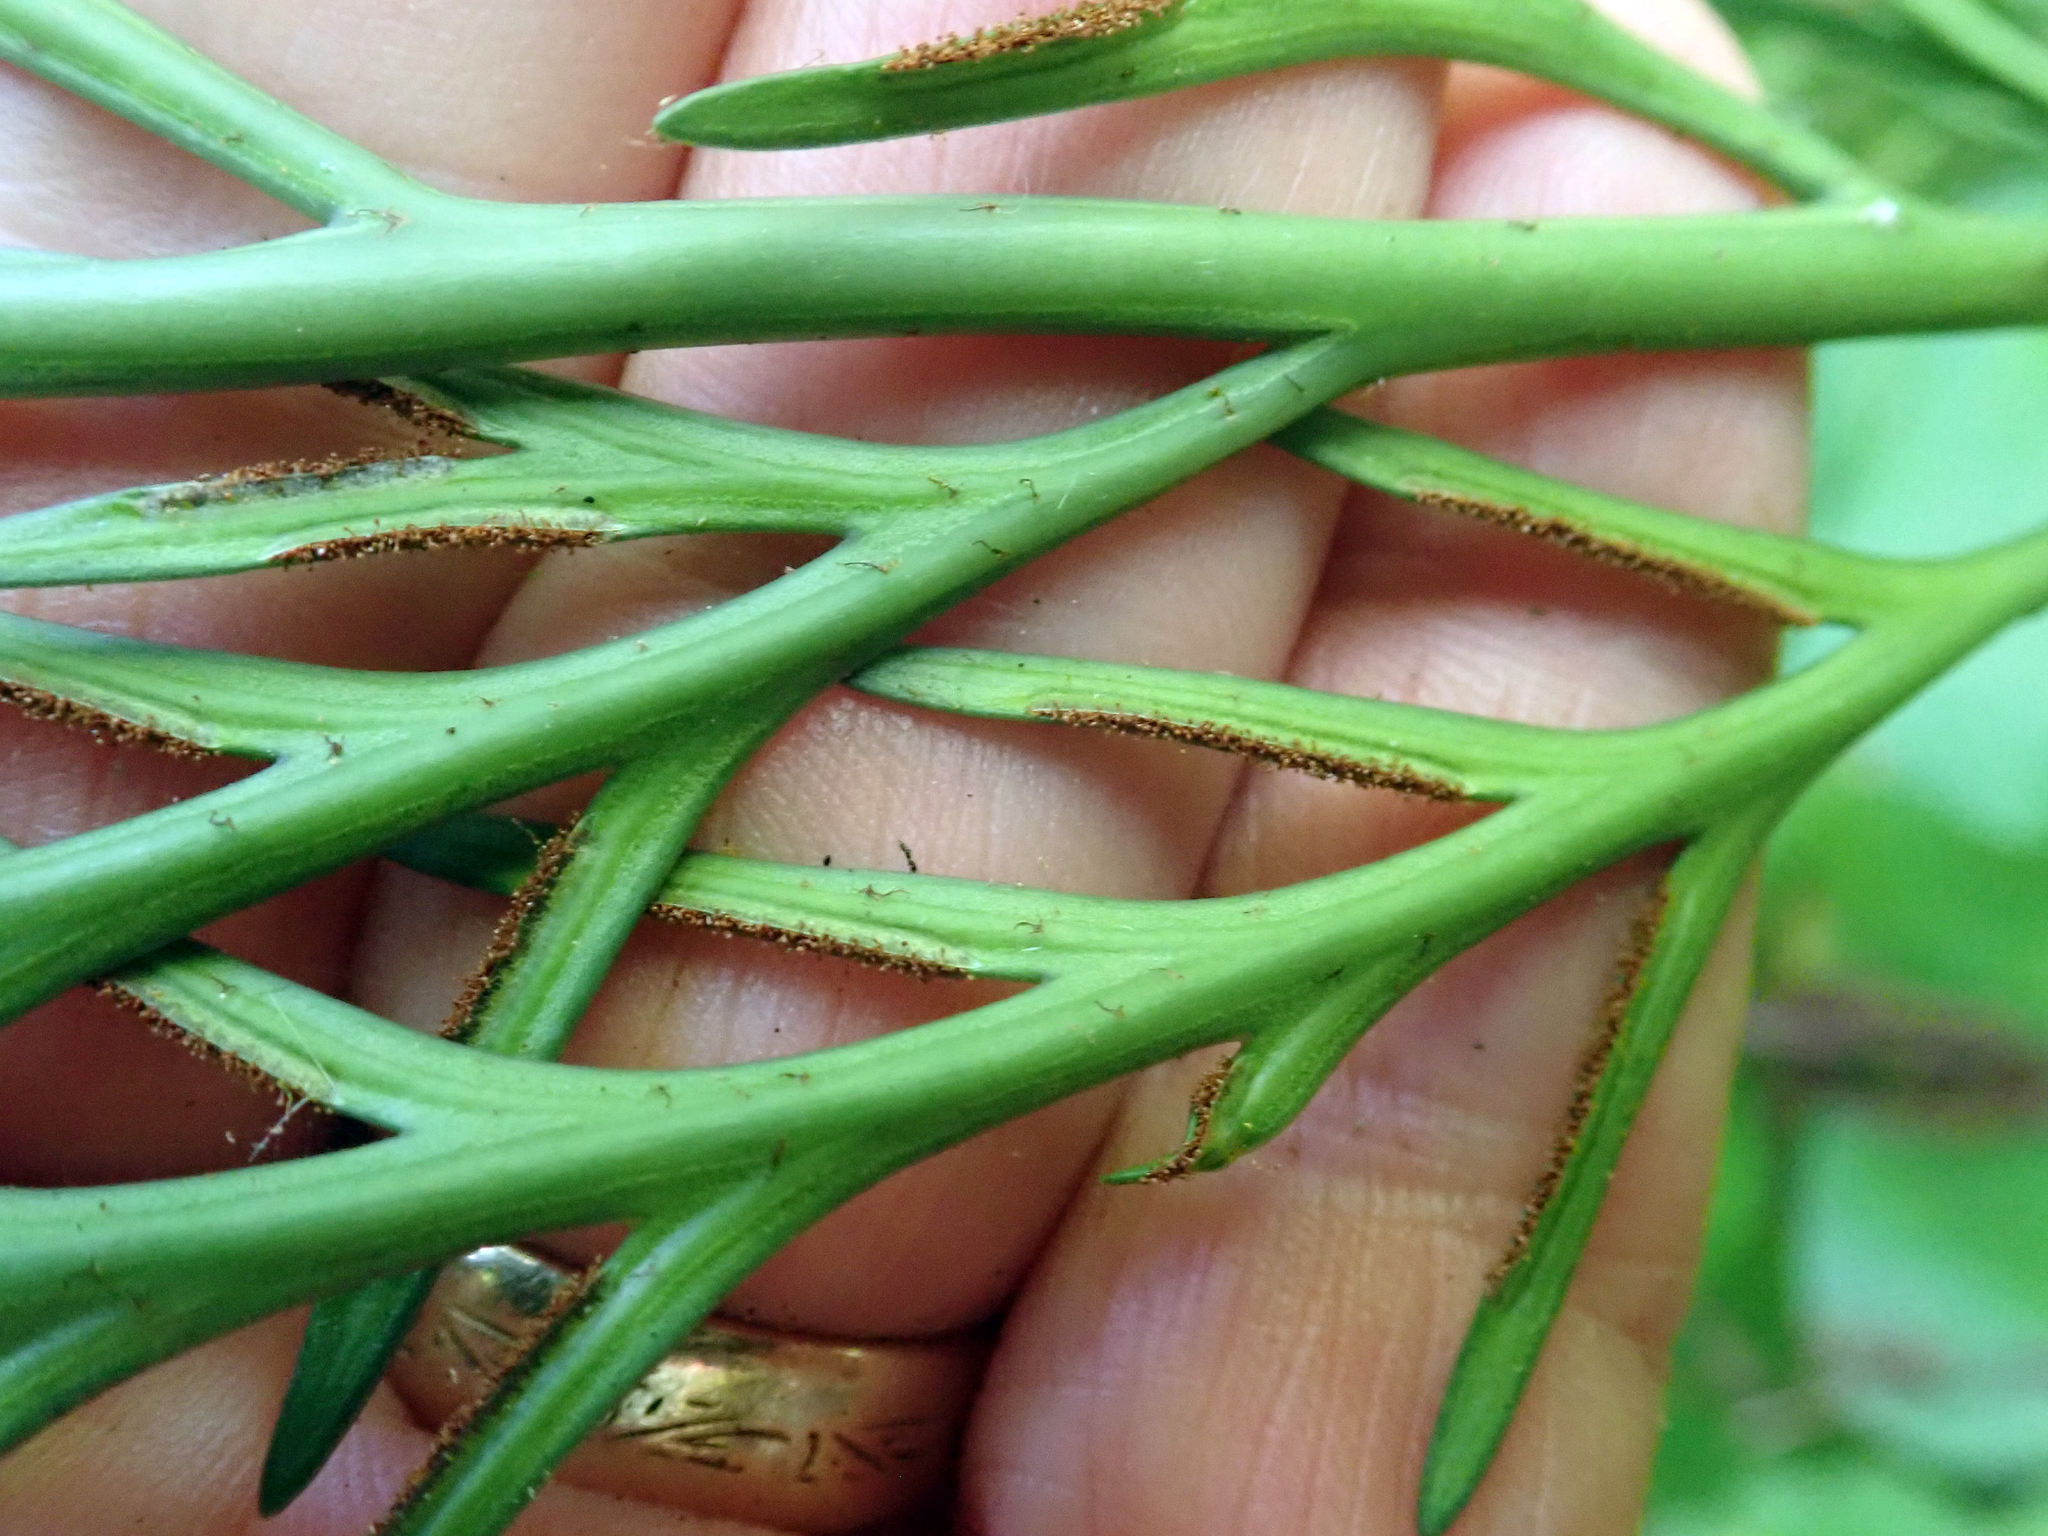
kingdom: Plantae
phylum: Tracheophyta
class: Polypodiopsida
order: Polypodiales
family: Aspleniaceae
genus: Asplenium
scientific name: Asplenium flaccidum
